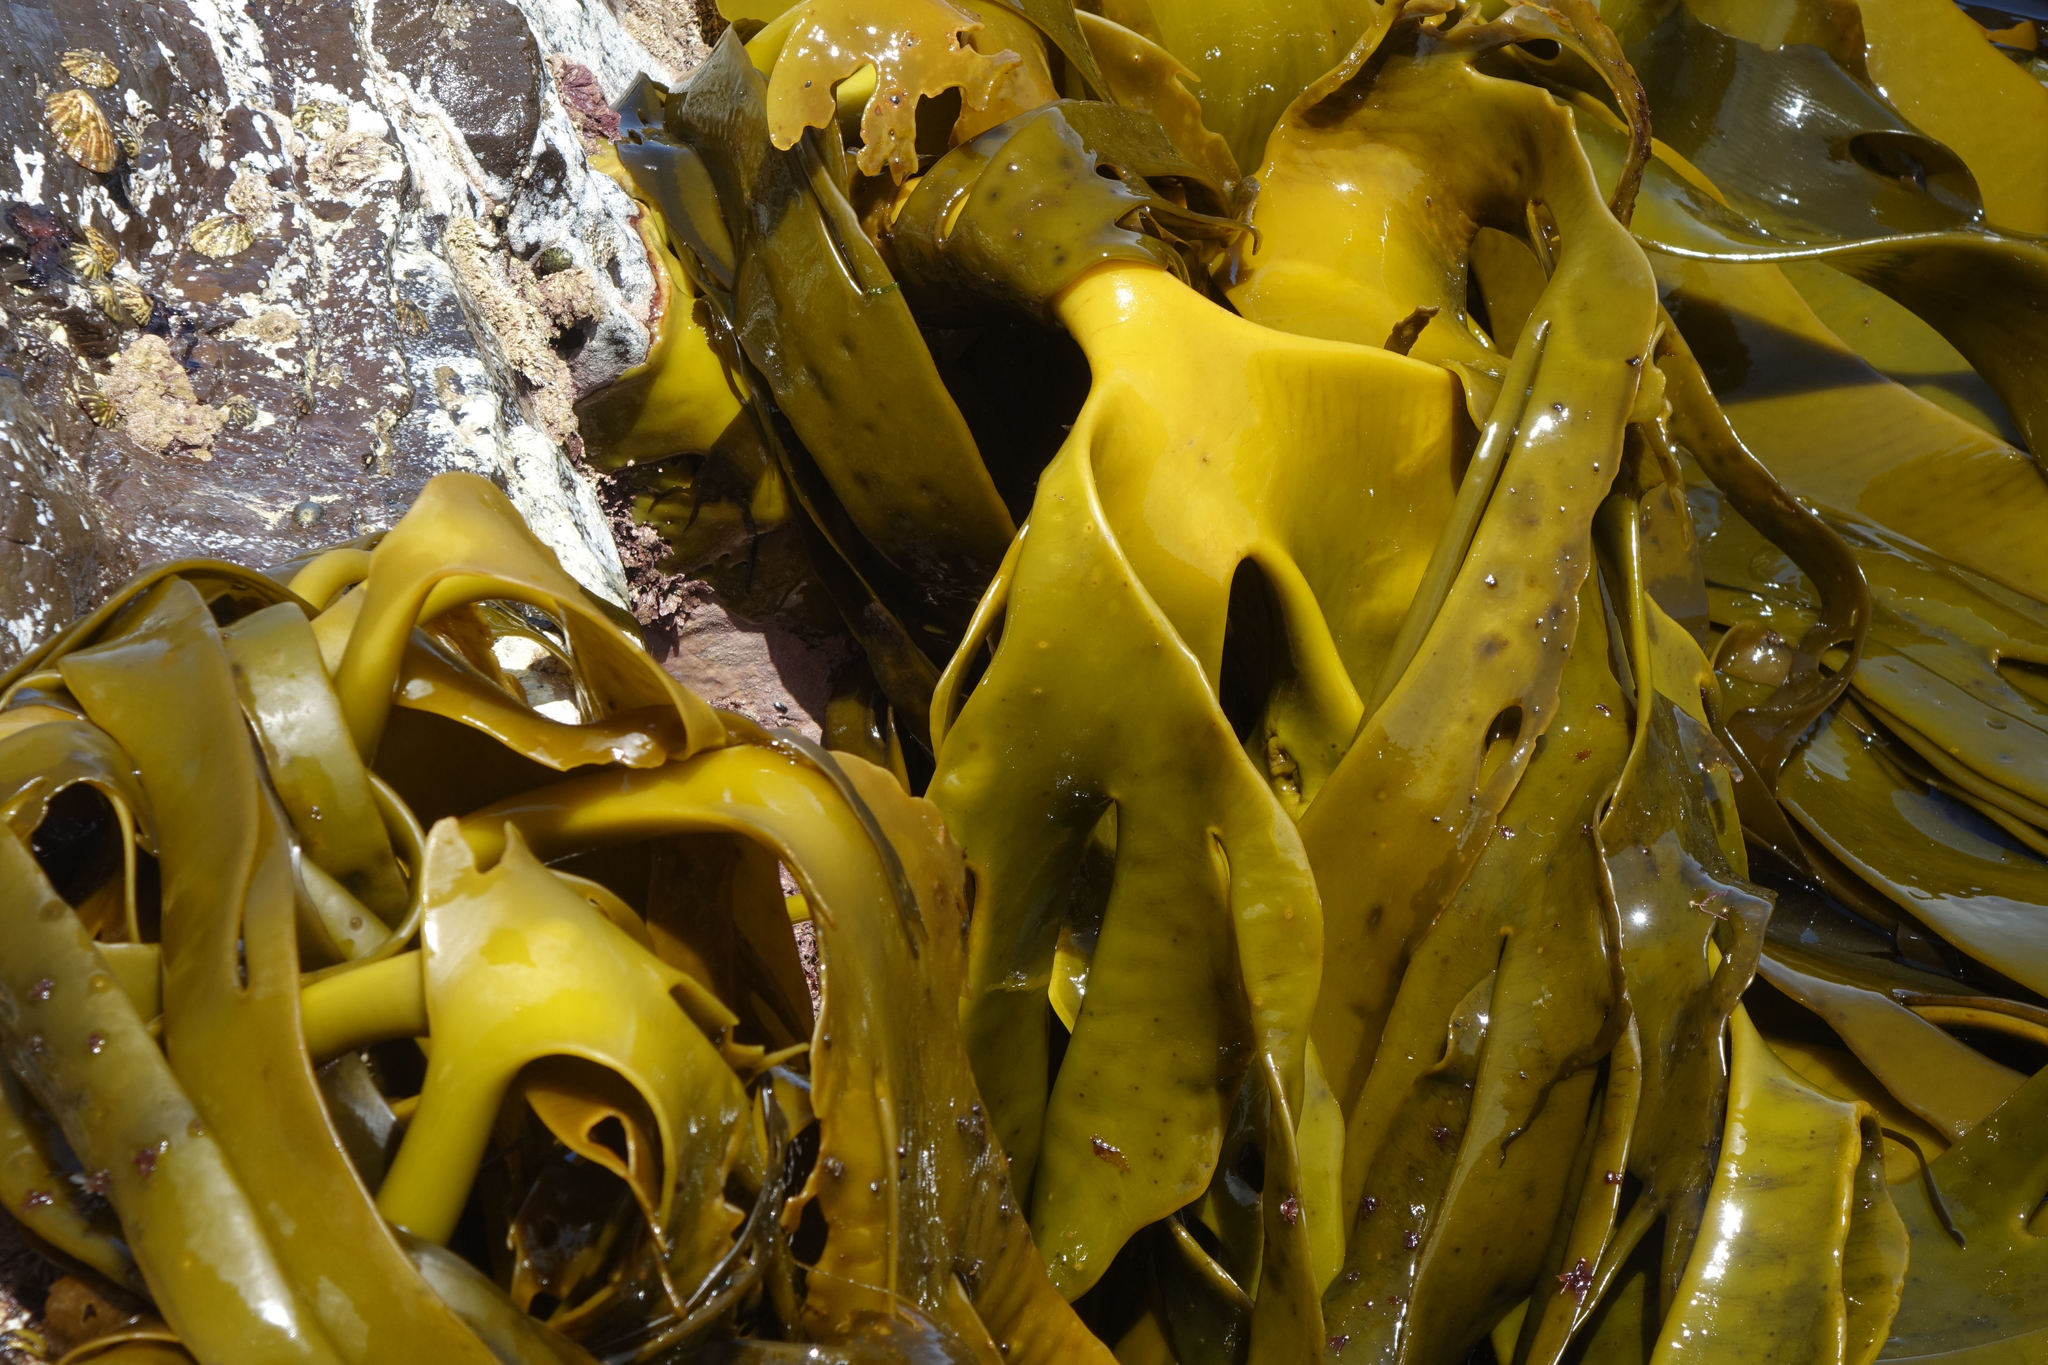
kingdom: Chromista
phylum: Ochrophyta
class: Phaeophyceae
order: Fucales
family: Durvillaeaceae
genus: Durvillaea
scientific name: Durvillaea antarctica
